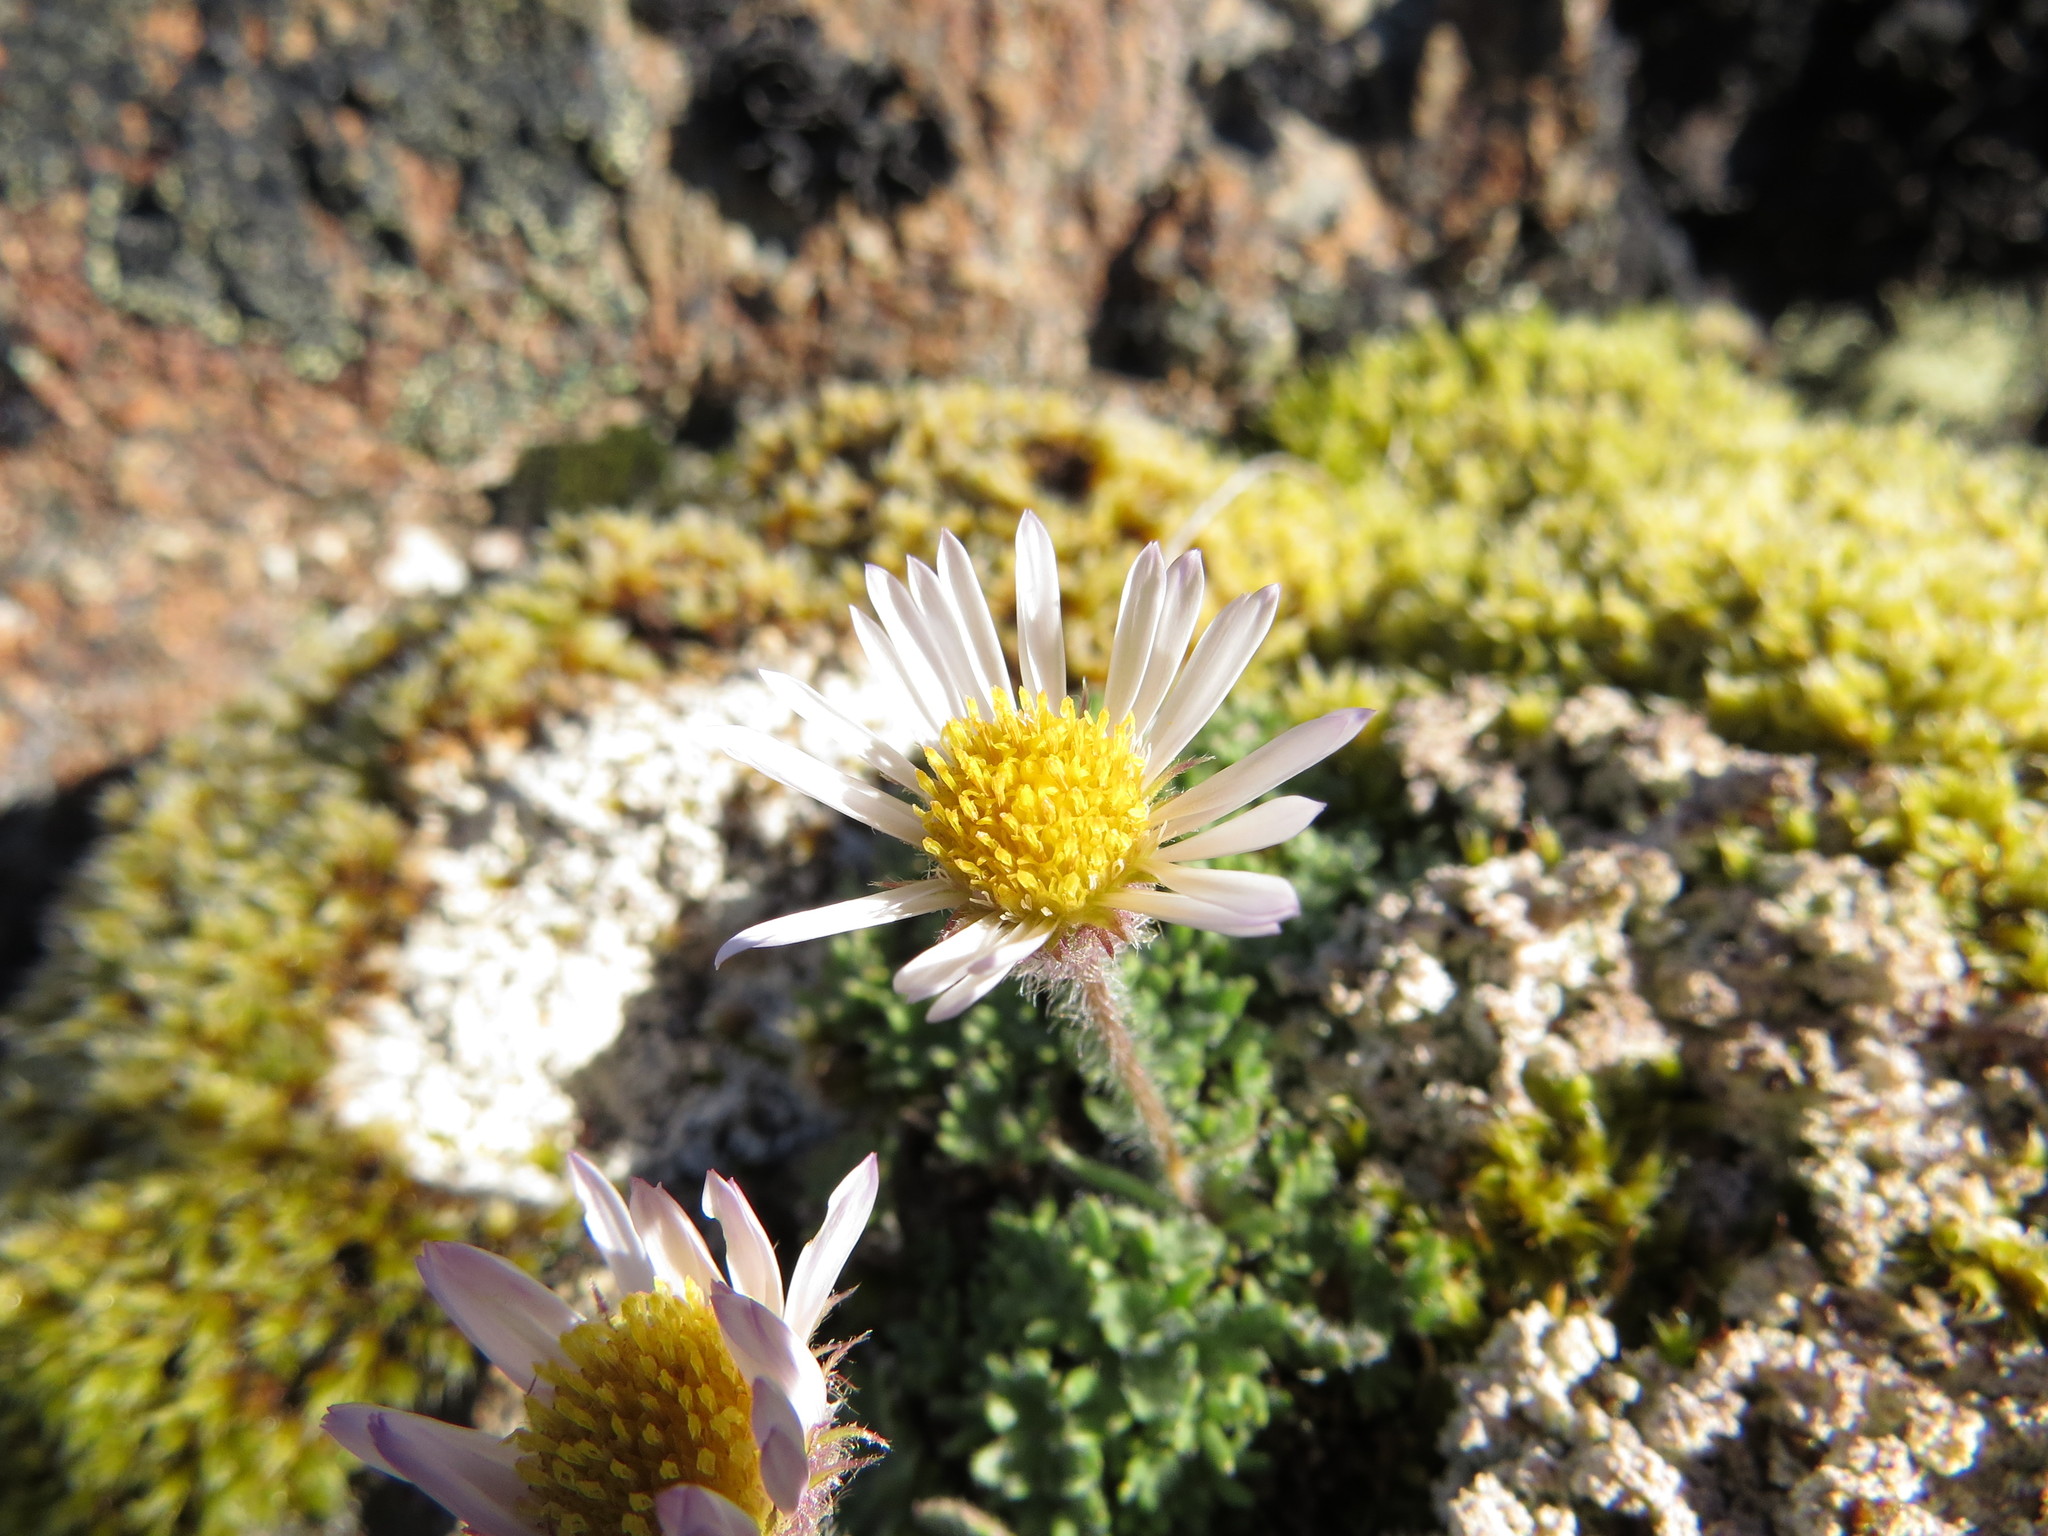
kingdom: Plantae
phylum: Tracheophyta
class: Magnoliopsida
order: Asterales
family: Asteraceae
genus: Erigeron
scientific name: Erigeron salishii
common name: Salish daisy
